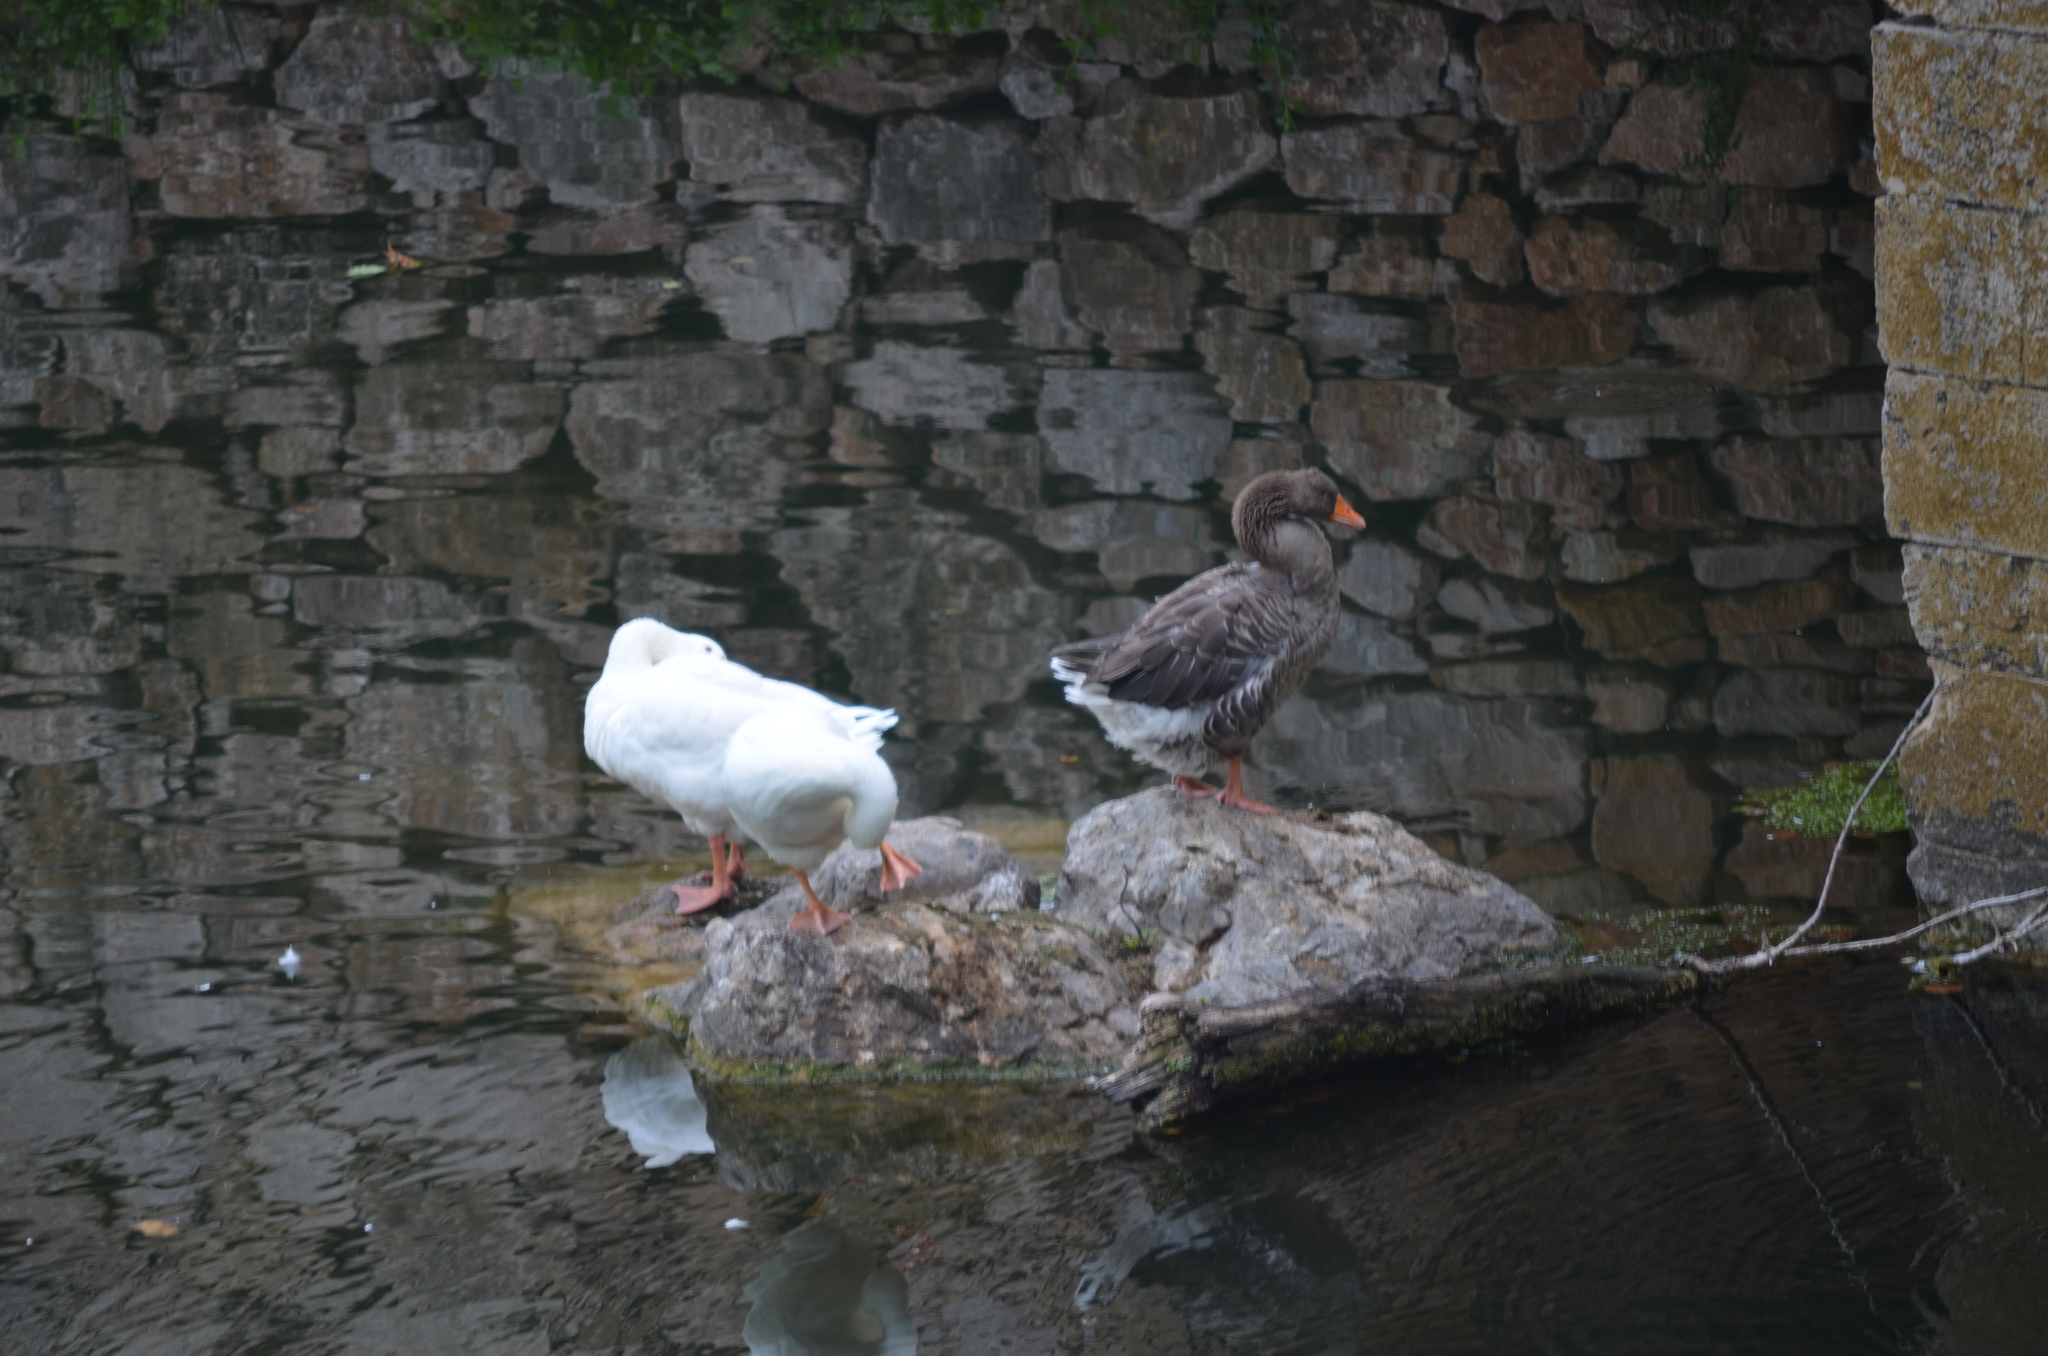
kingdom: Animalia
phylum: Chordata
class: Aves
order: Anseriformes
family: Anatidae
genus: Anser
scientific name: Anser anser
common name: Greylag goose
